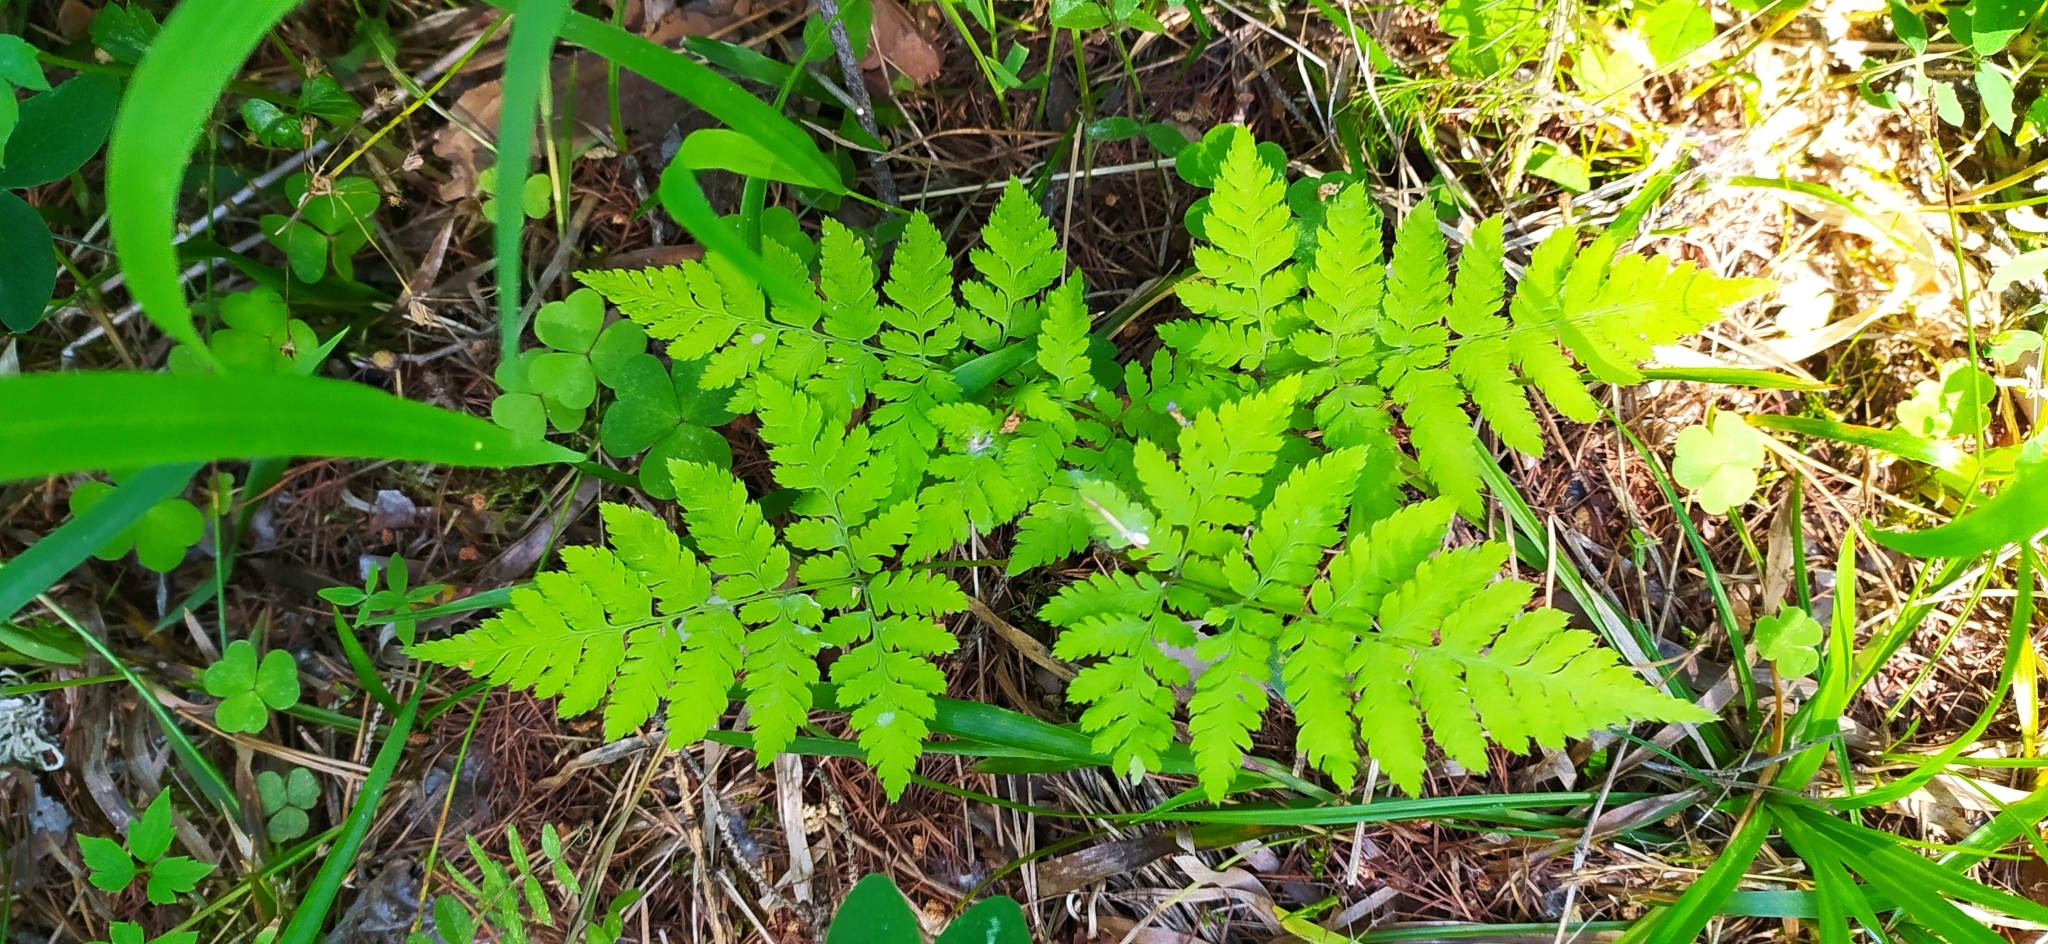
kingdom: Plantae
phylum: Tracheophyta
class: Polypodiopsida
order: Polypodiales
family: Dryopteridaceae
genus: Dryopteris
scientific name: Dryopteris carthusiana
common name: Narrow buckler-fern
